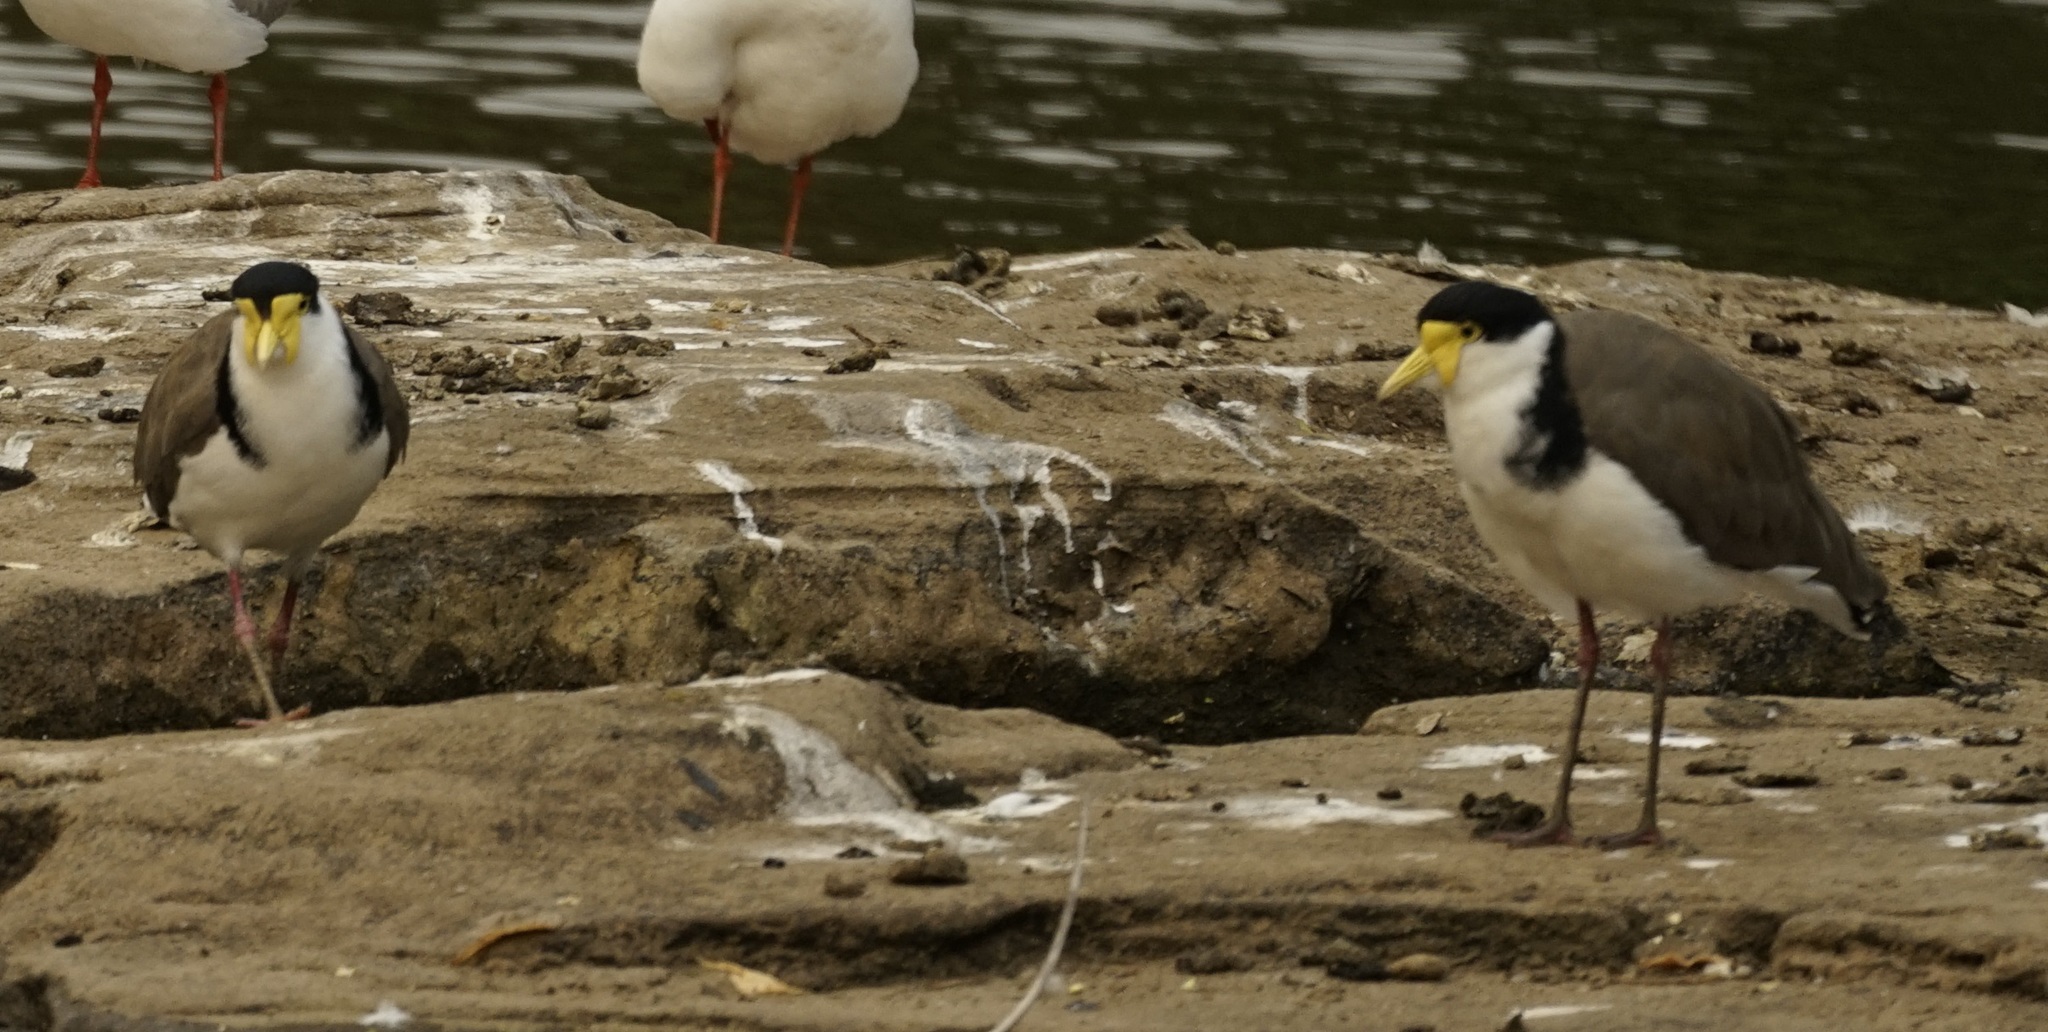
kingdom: Animalia
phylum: Chordata
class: Aves
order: Charadriiformes
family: Charadriidae
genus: Vanellus
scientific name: Vanellus miles
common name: Masked lapwing
